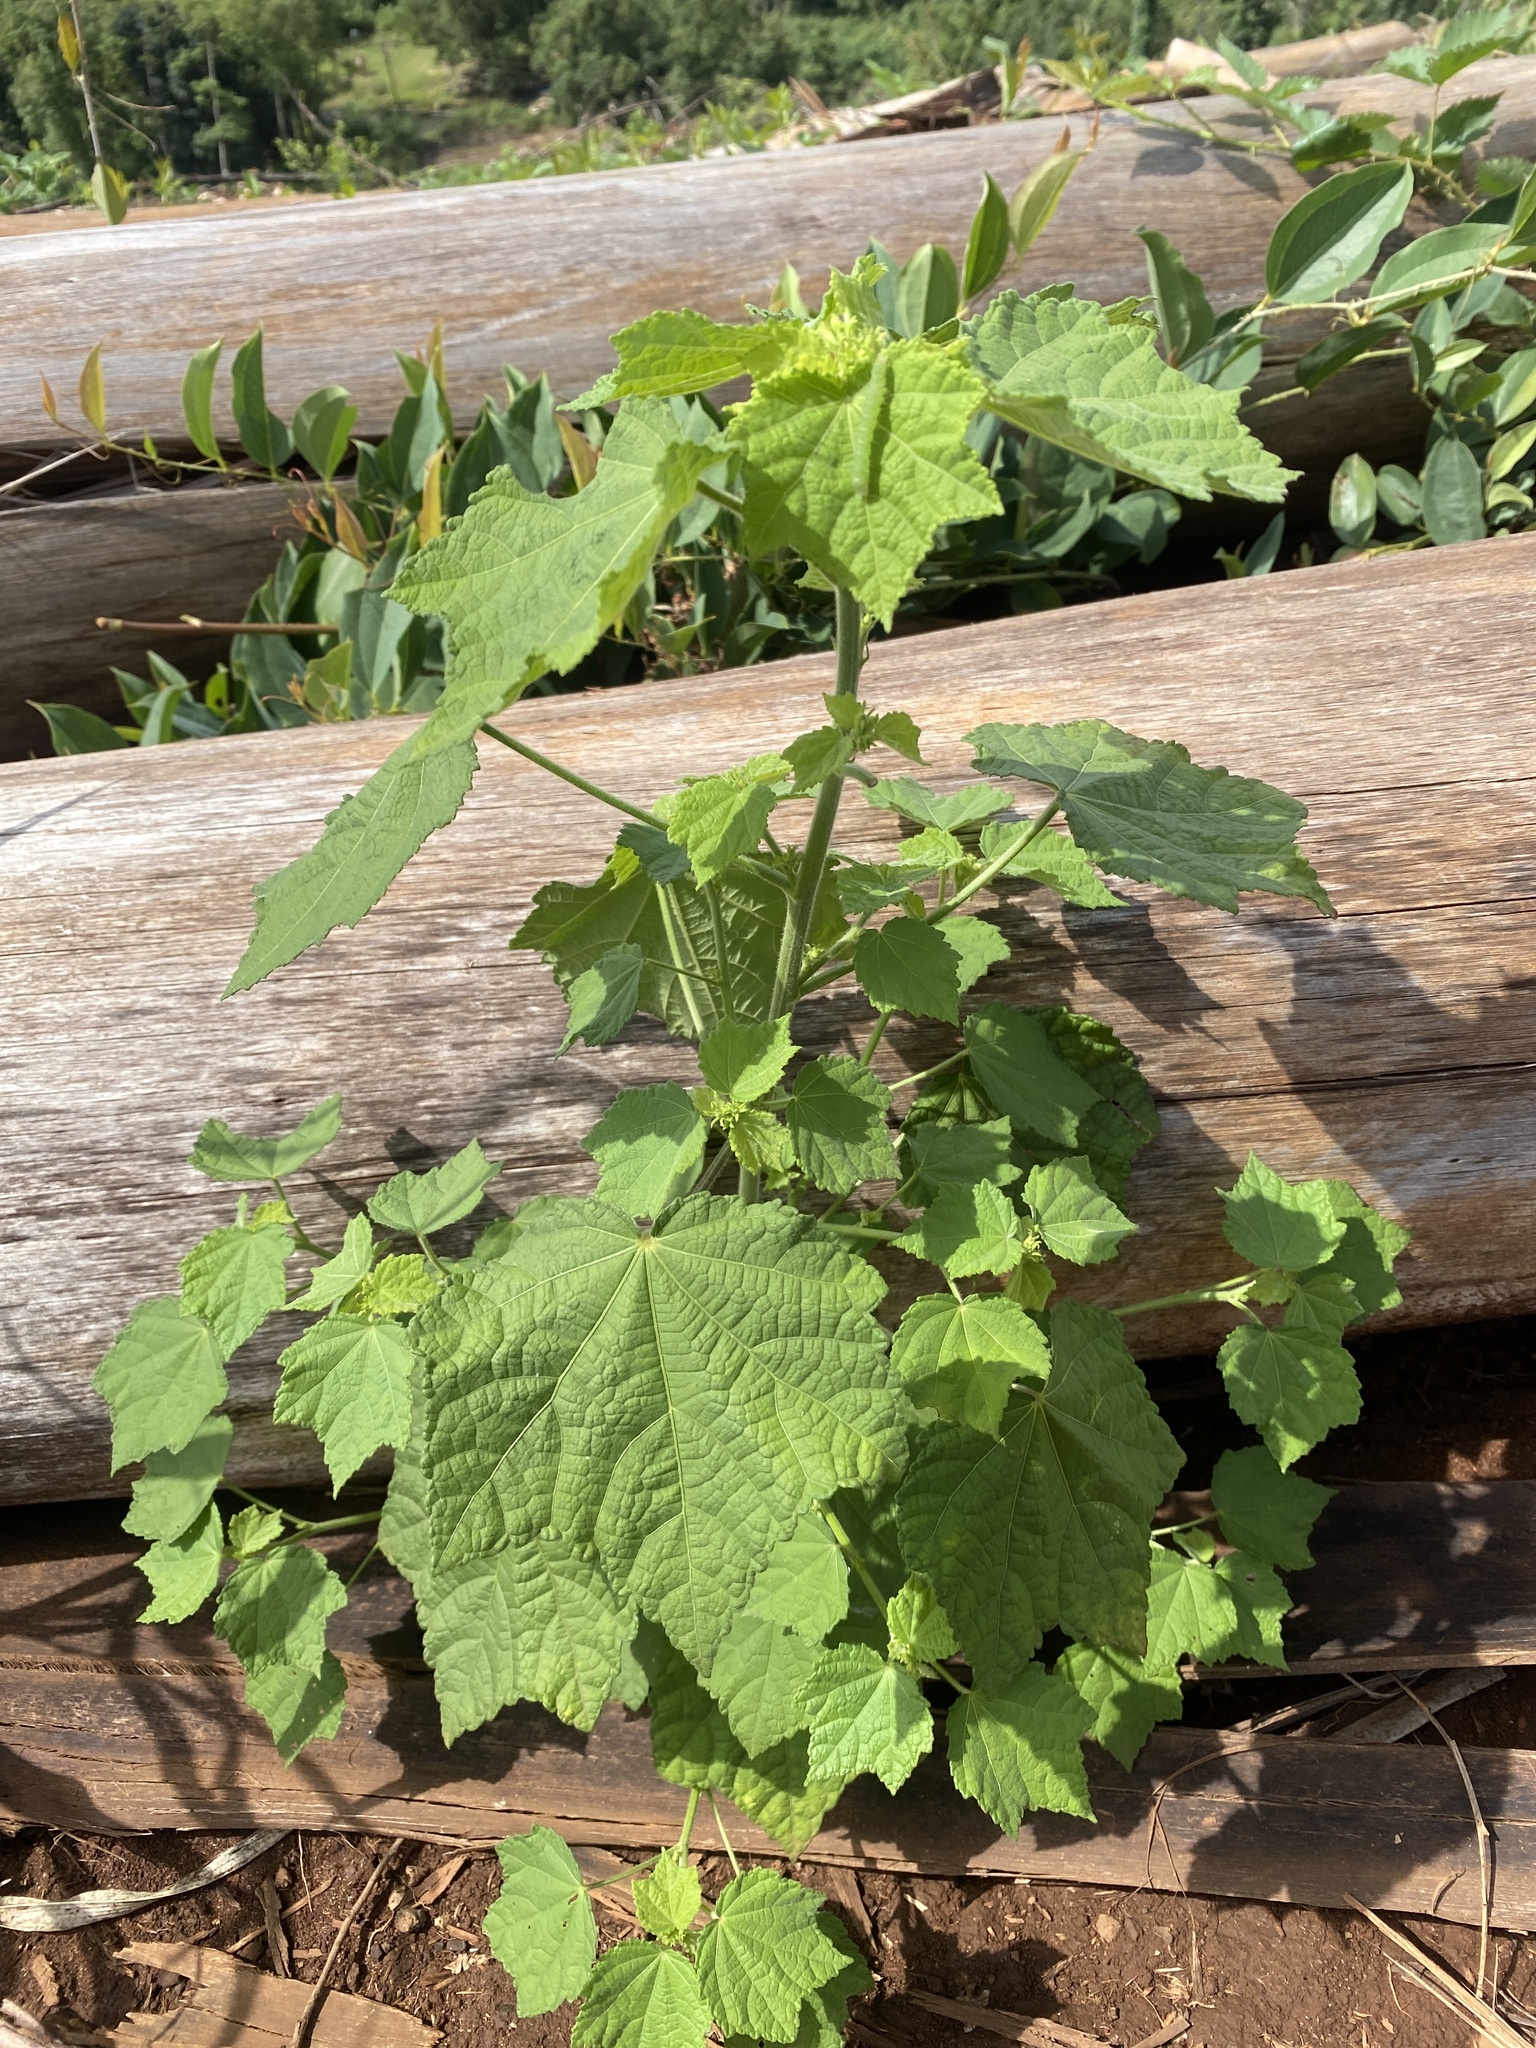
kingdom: Plantae
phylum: Tracheophyta
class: Magnoliopsida
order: Malvales
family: Malvaceae
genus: Pavonia
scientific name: Pavonia columella
